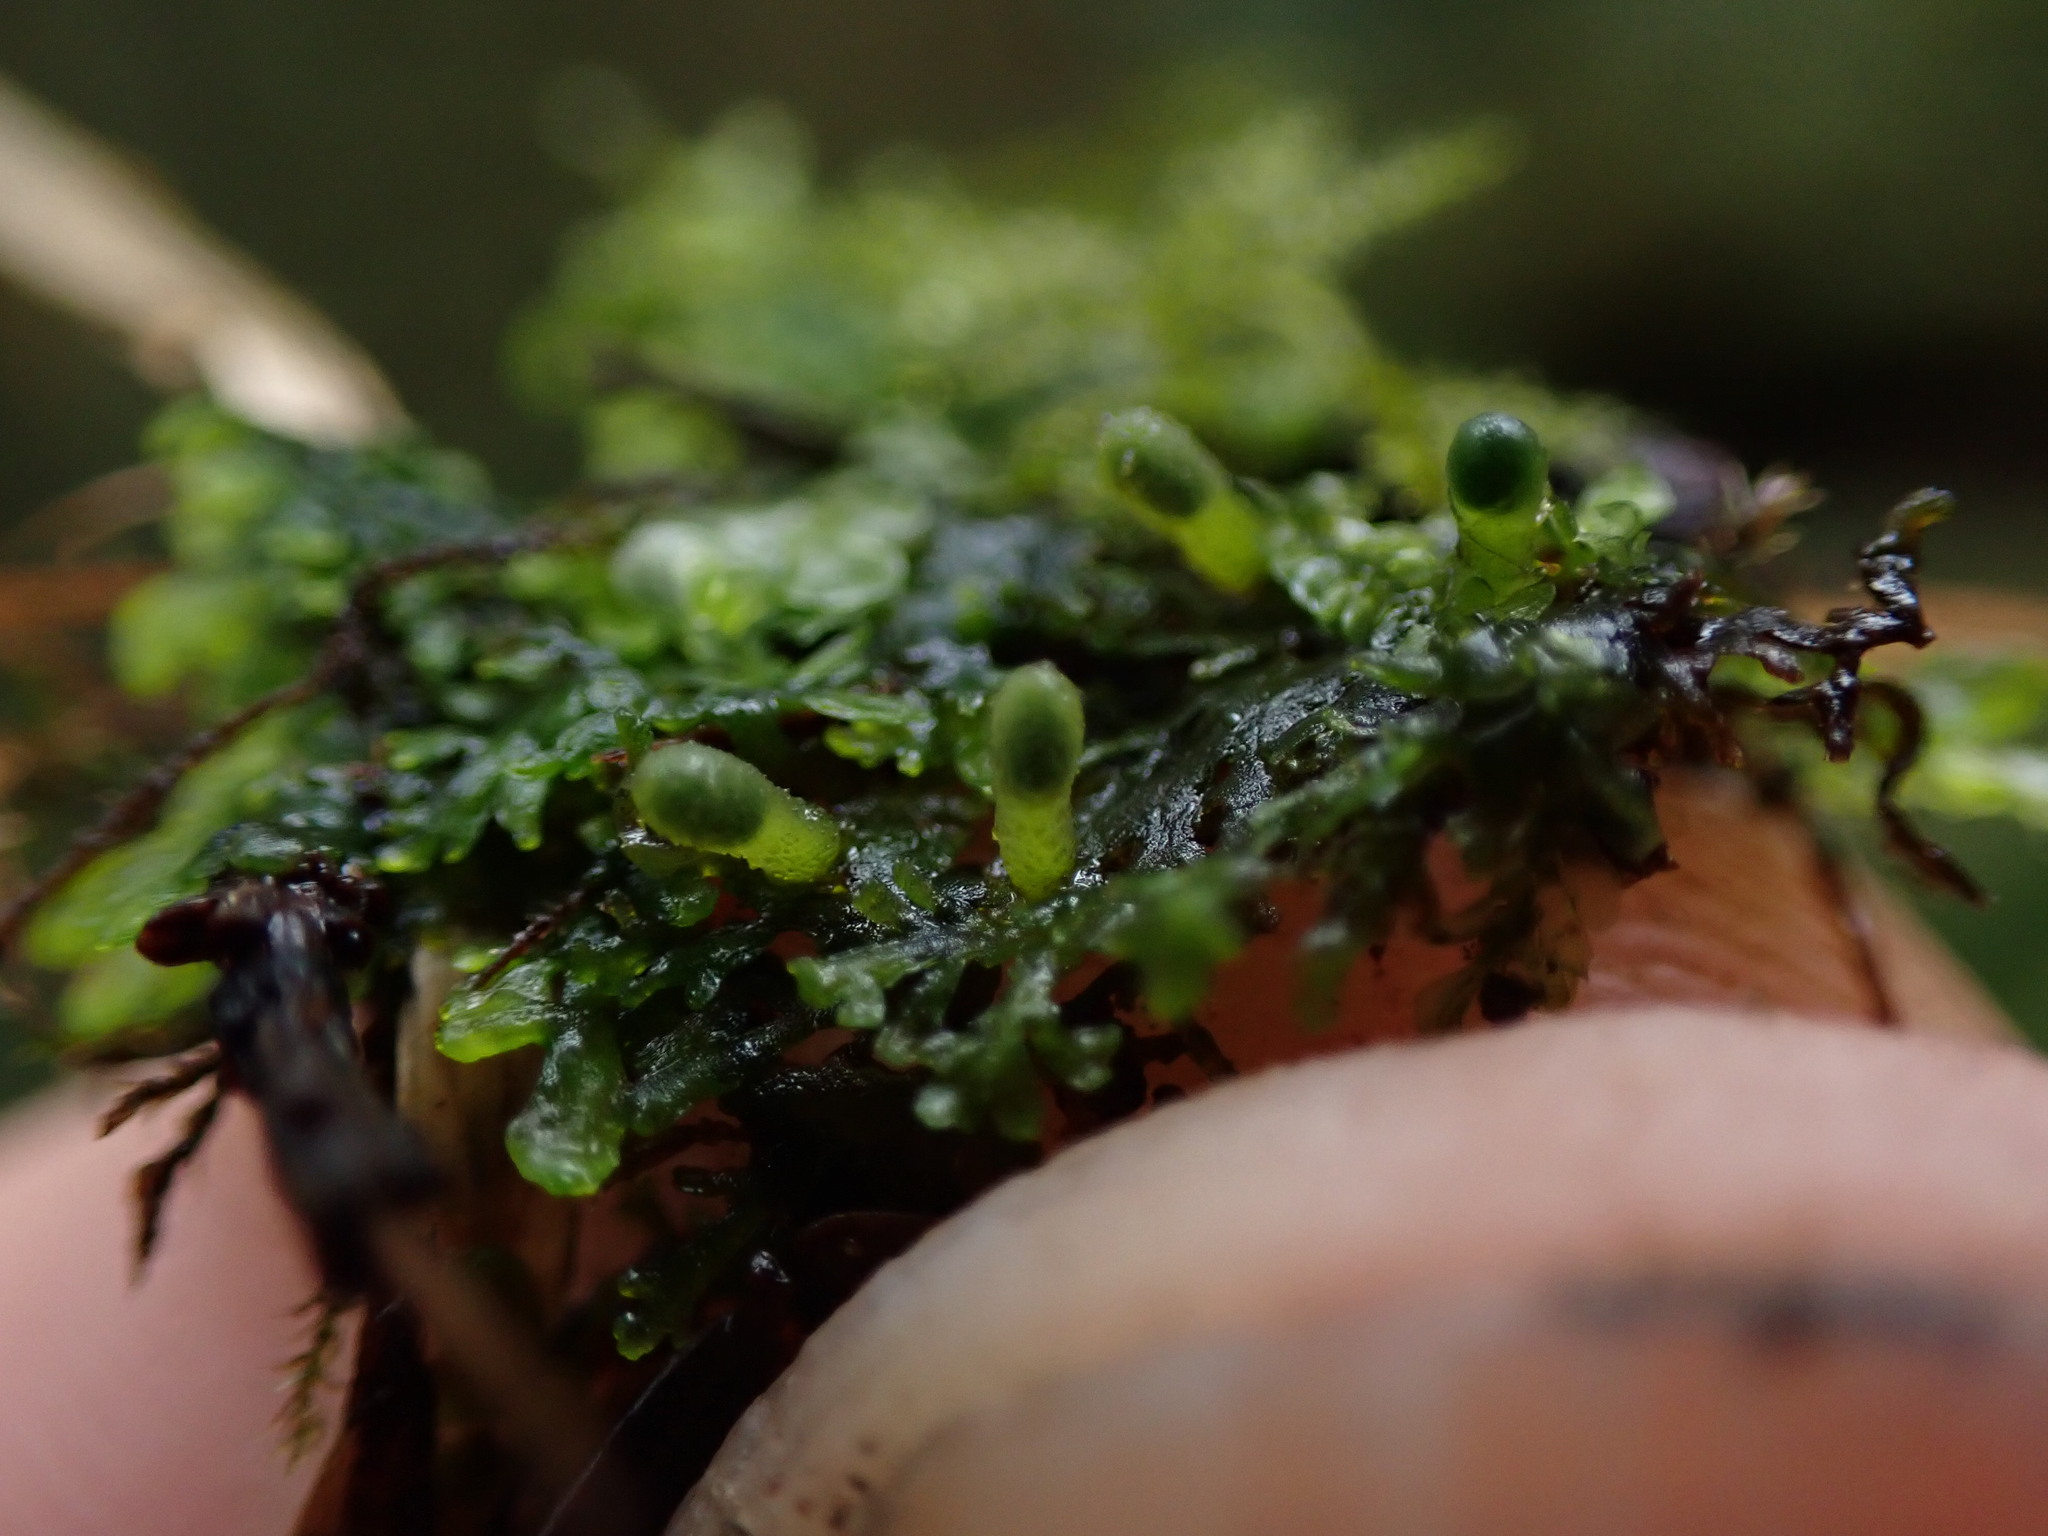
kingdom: Plantae
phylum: Marchantiophyta
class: Jungermanniopsida
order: Metzgeriales
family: Aneuraceae
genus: Riccardia
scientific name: Riccardia chamedryfolia
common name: Jagged germanderwort
